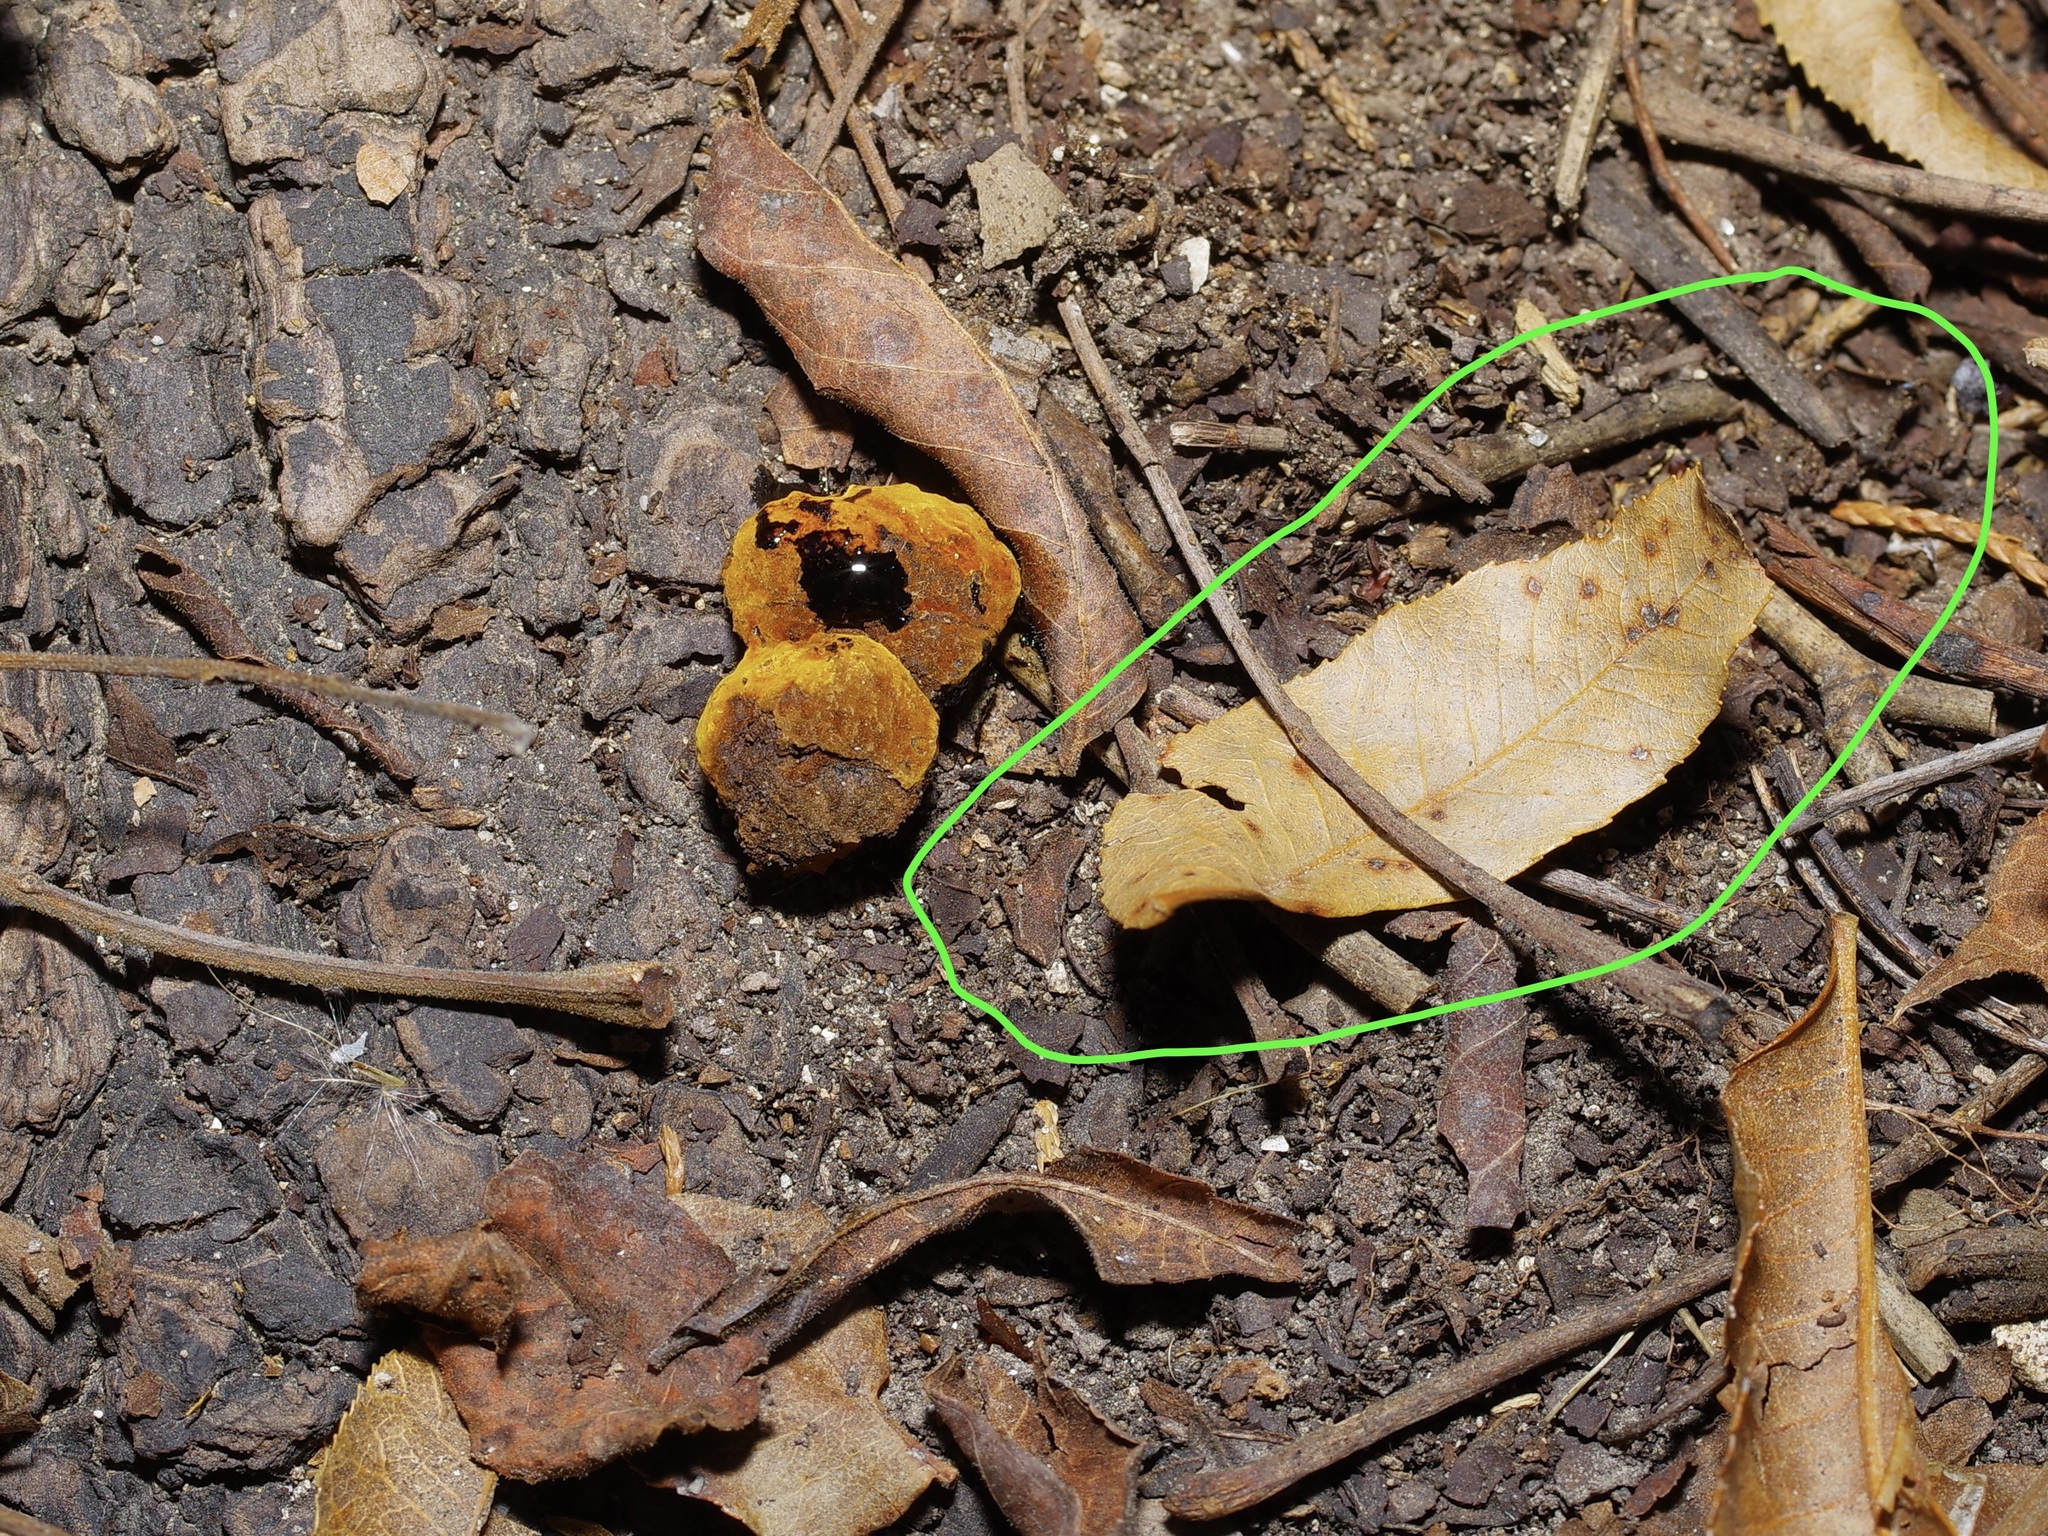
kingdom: Plantae
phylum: Tracheophyta
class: Magnoliopsida
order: Fagales
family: Juglandaceae
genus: Juglans
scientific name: Juglans major
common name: Arizona walnut
